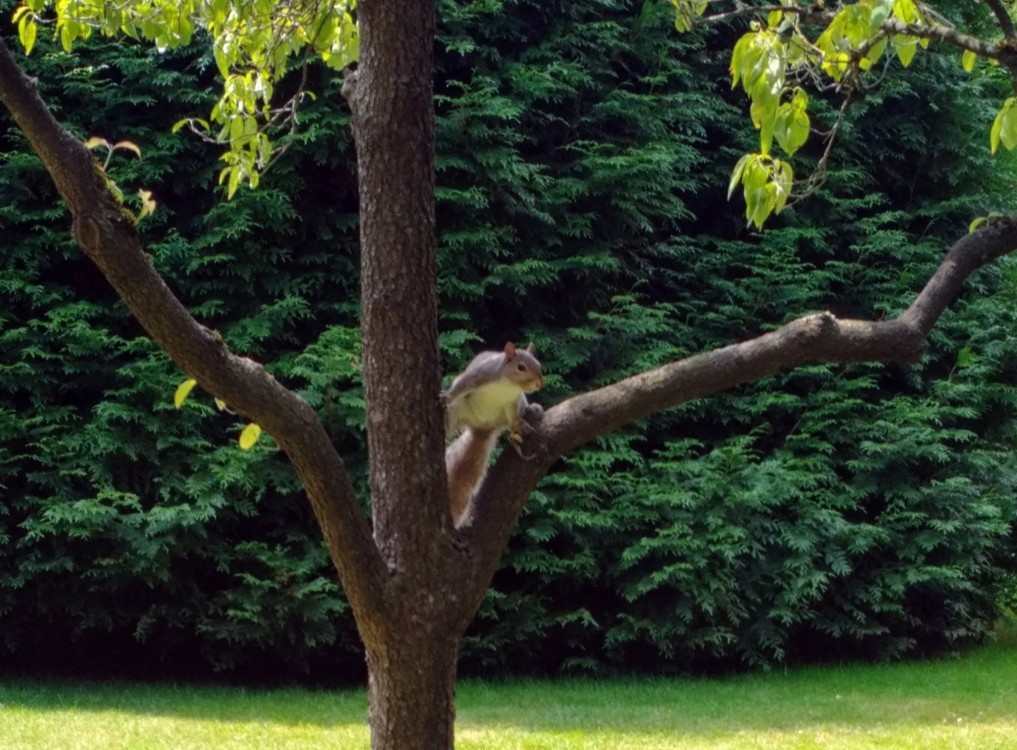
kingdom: Animalia
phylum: Chordata
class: Mammalia
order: Rodentia
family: Sciuridae
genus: Sciurus
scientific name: Sciurus carolinensis
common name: Eastern gray squirrel
